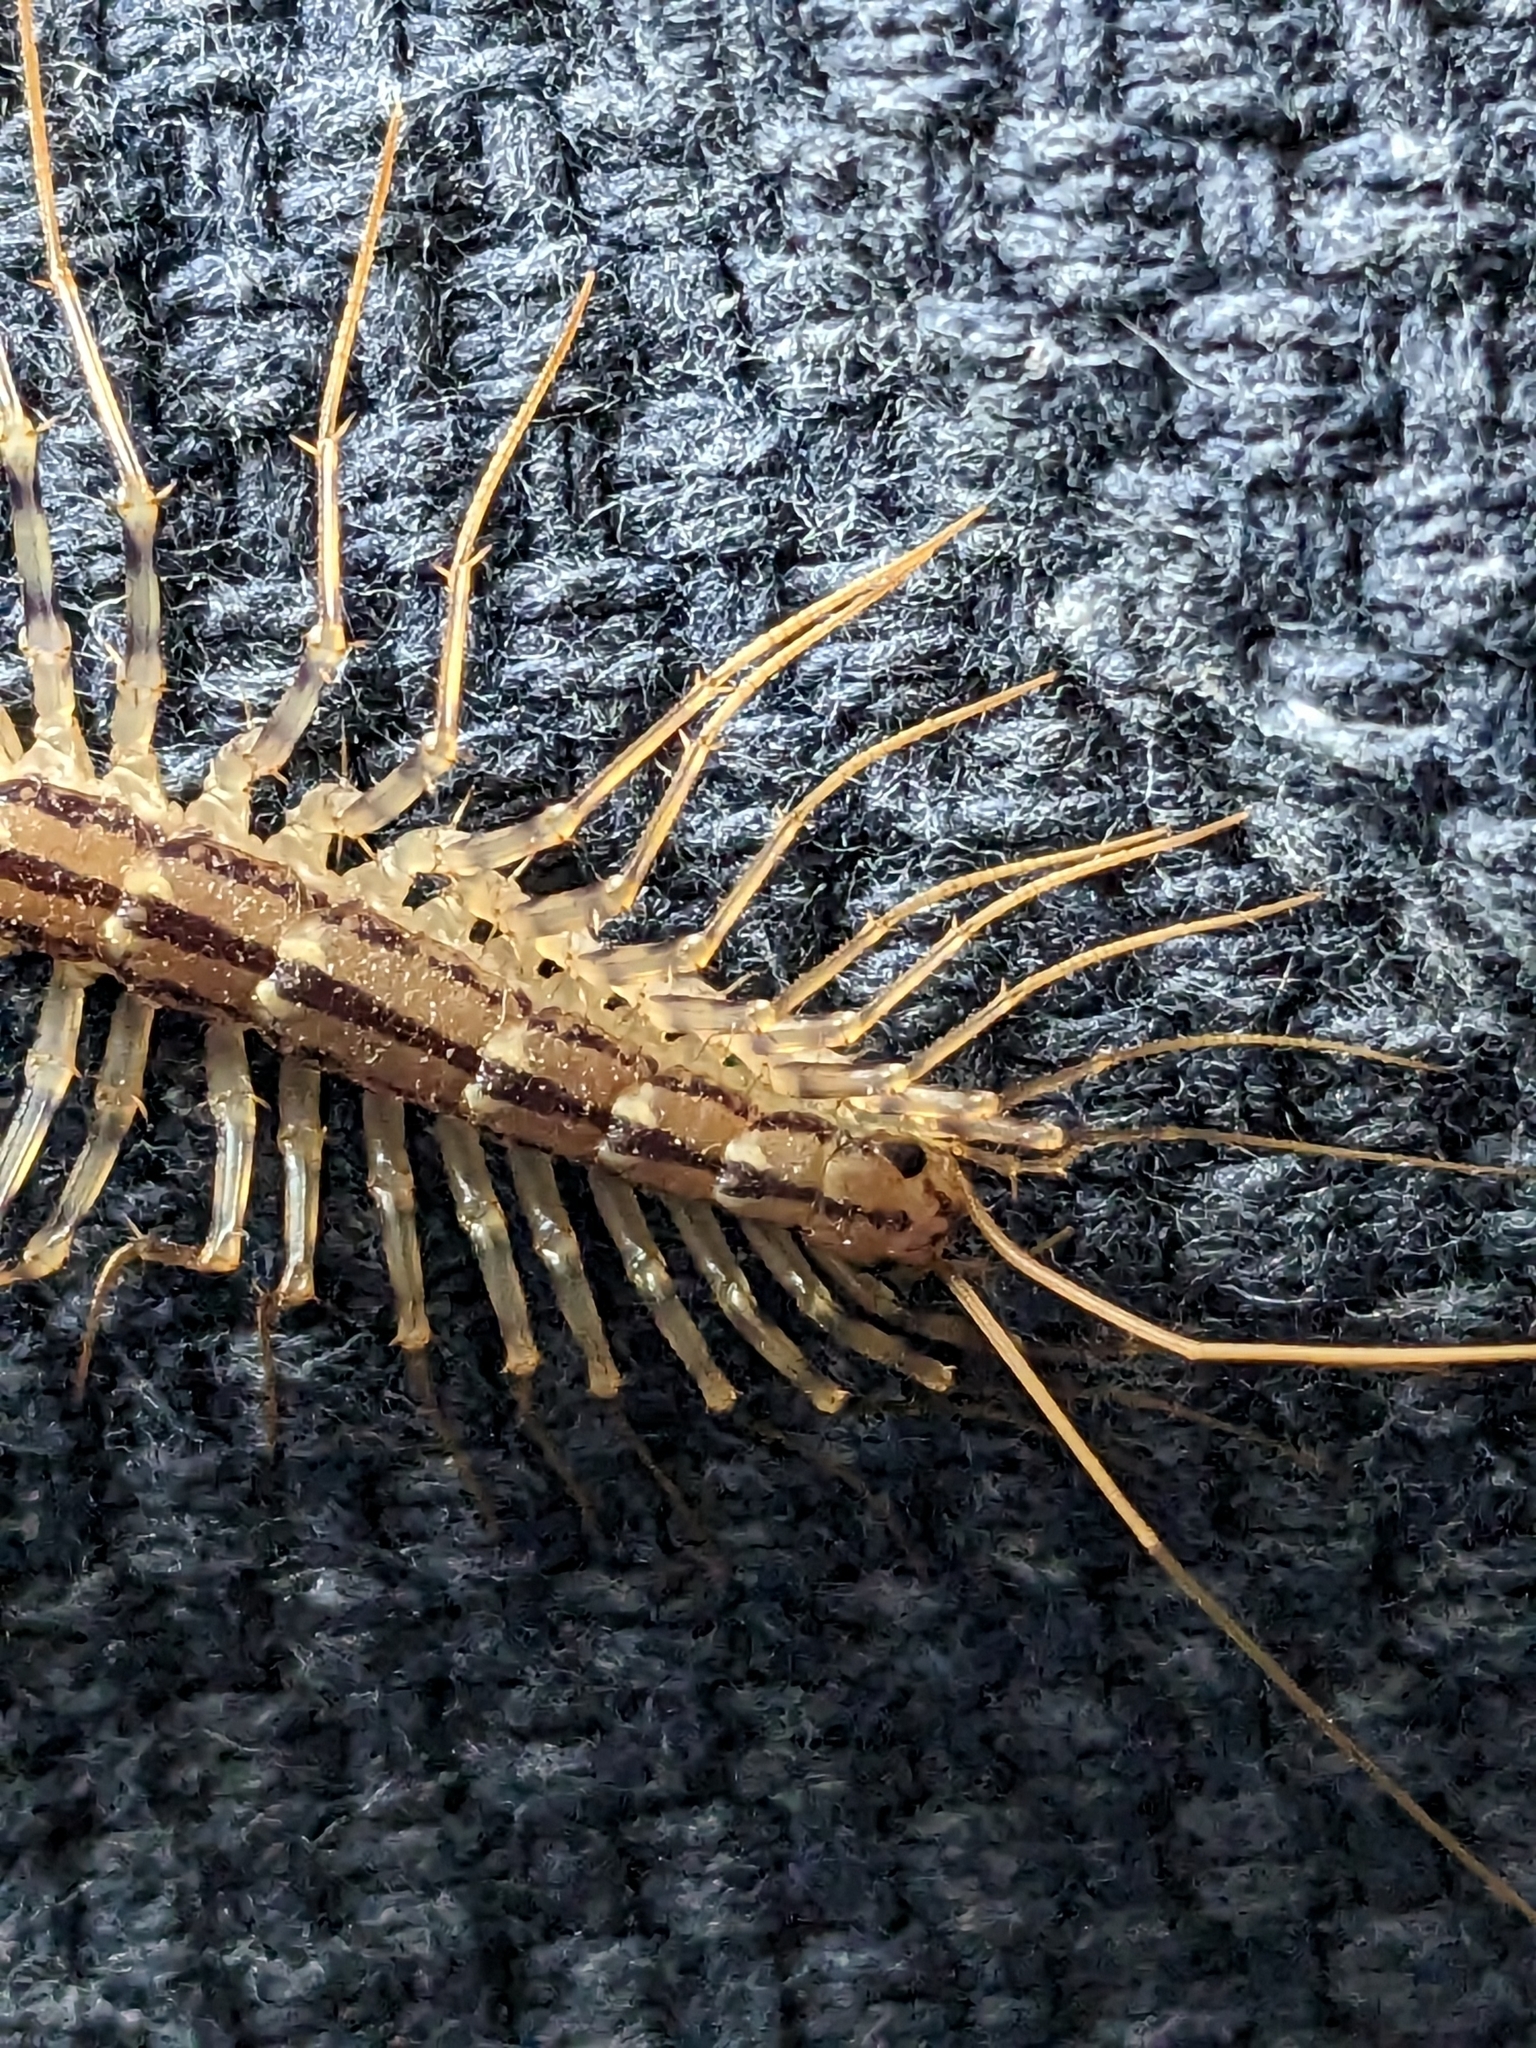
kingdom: Animalia
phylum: Arthropoda
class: Chilopoda
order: Scutigeromorpha
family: Scutigeridae
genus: Scutigera
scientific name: Scutigera coleoptrata
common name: House centipede
